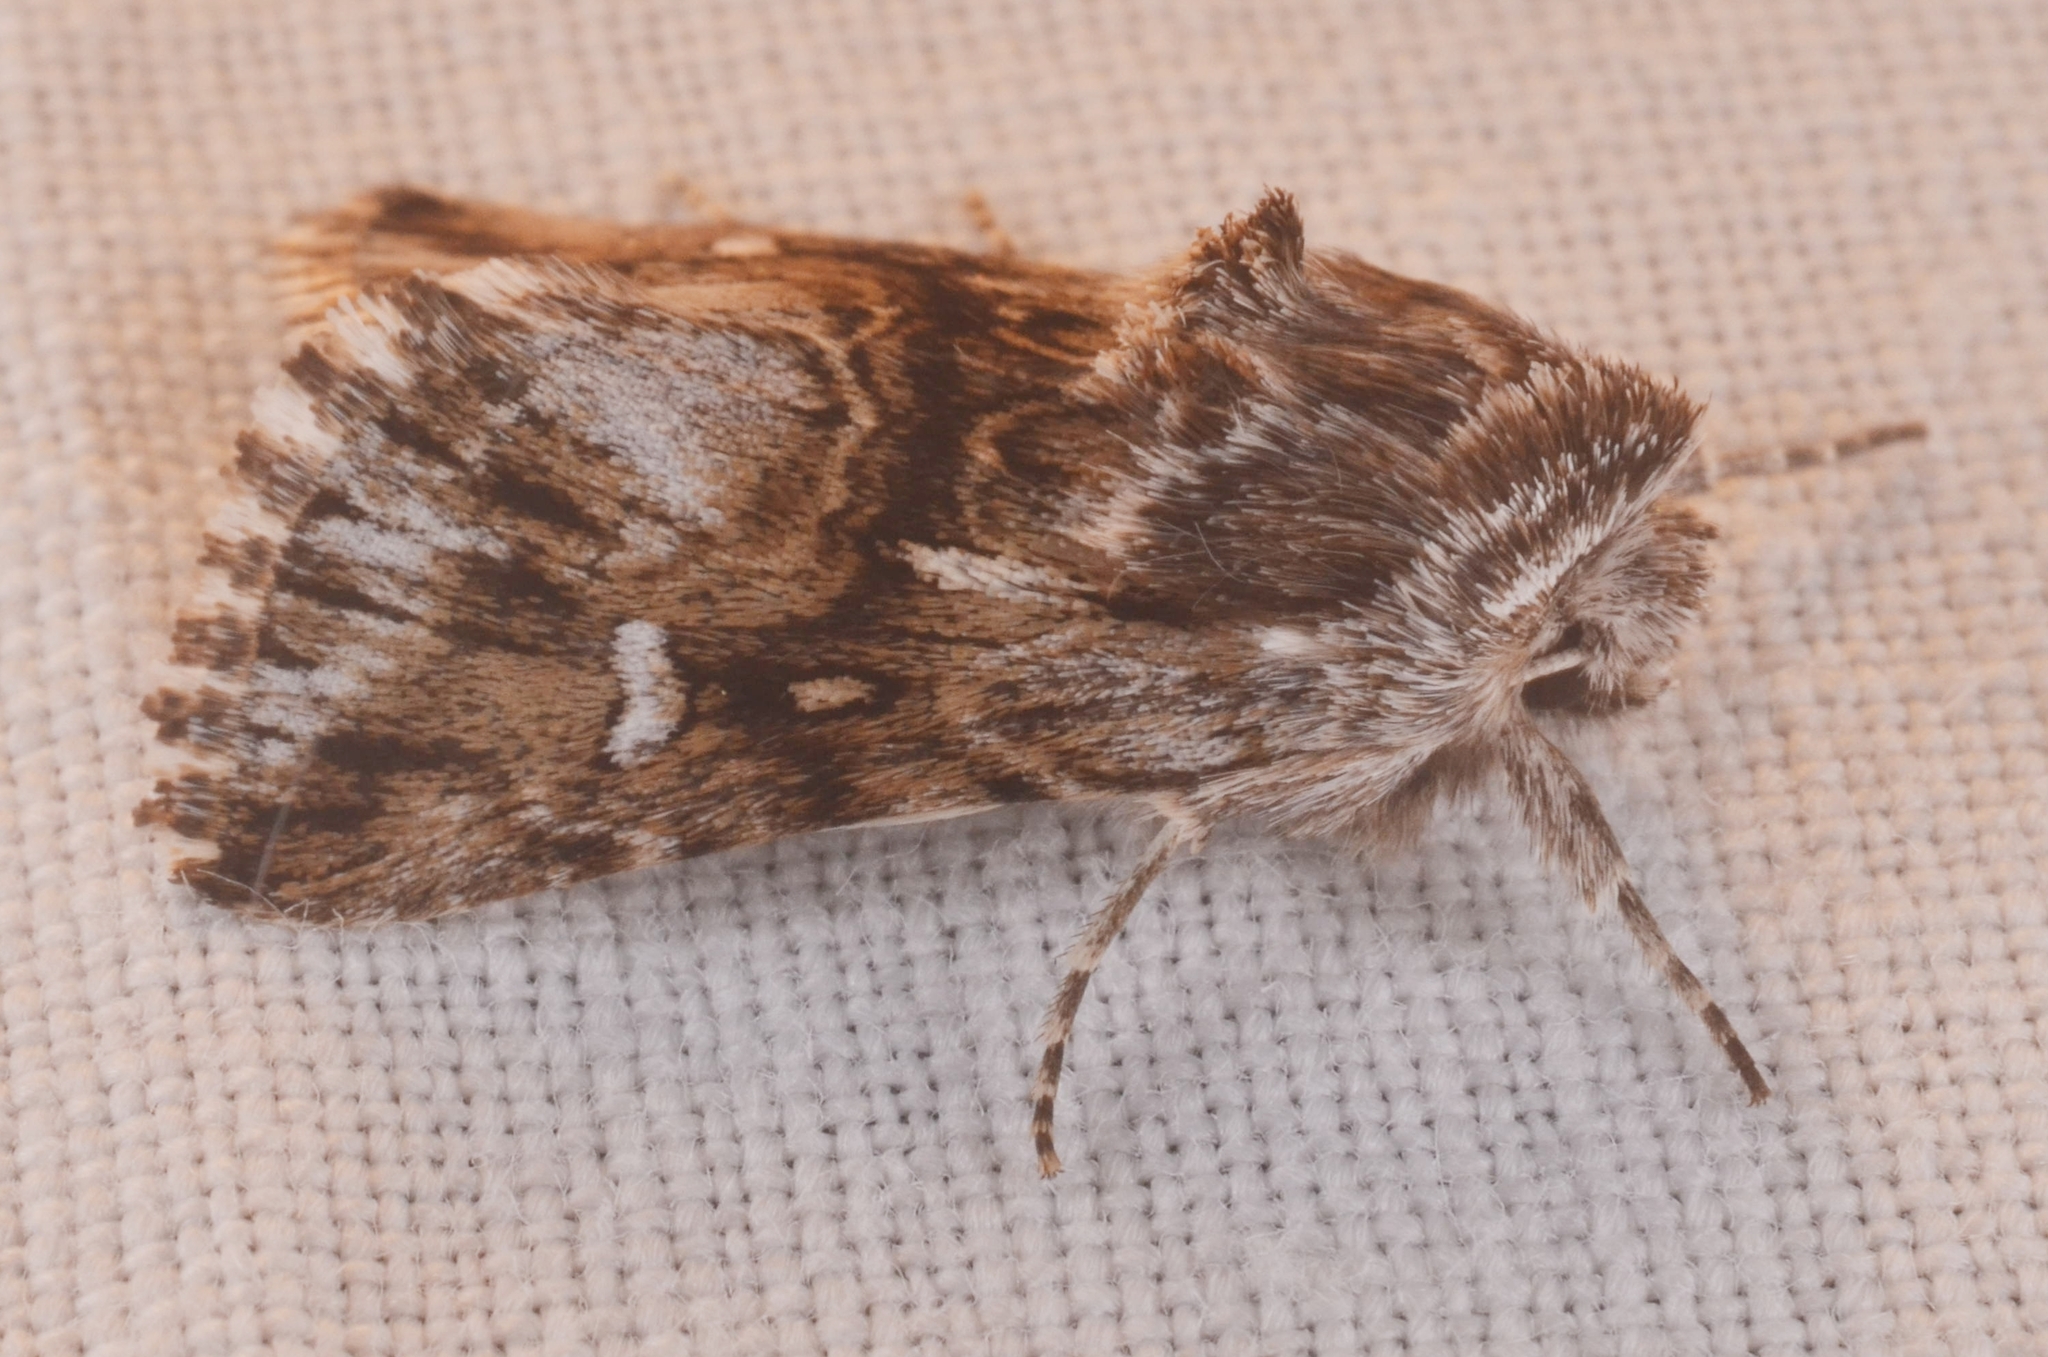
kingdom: Animalia
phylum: Arthropoda
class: Insecta
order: Lepidoptera
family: Noctuidae
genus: Calophasia
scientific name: Calophasia lunula
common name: Toadflax brocade
